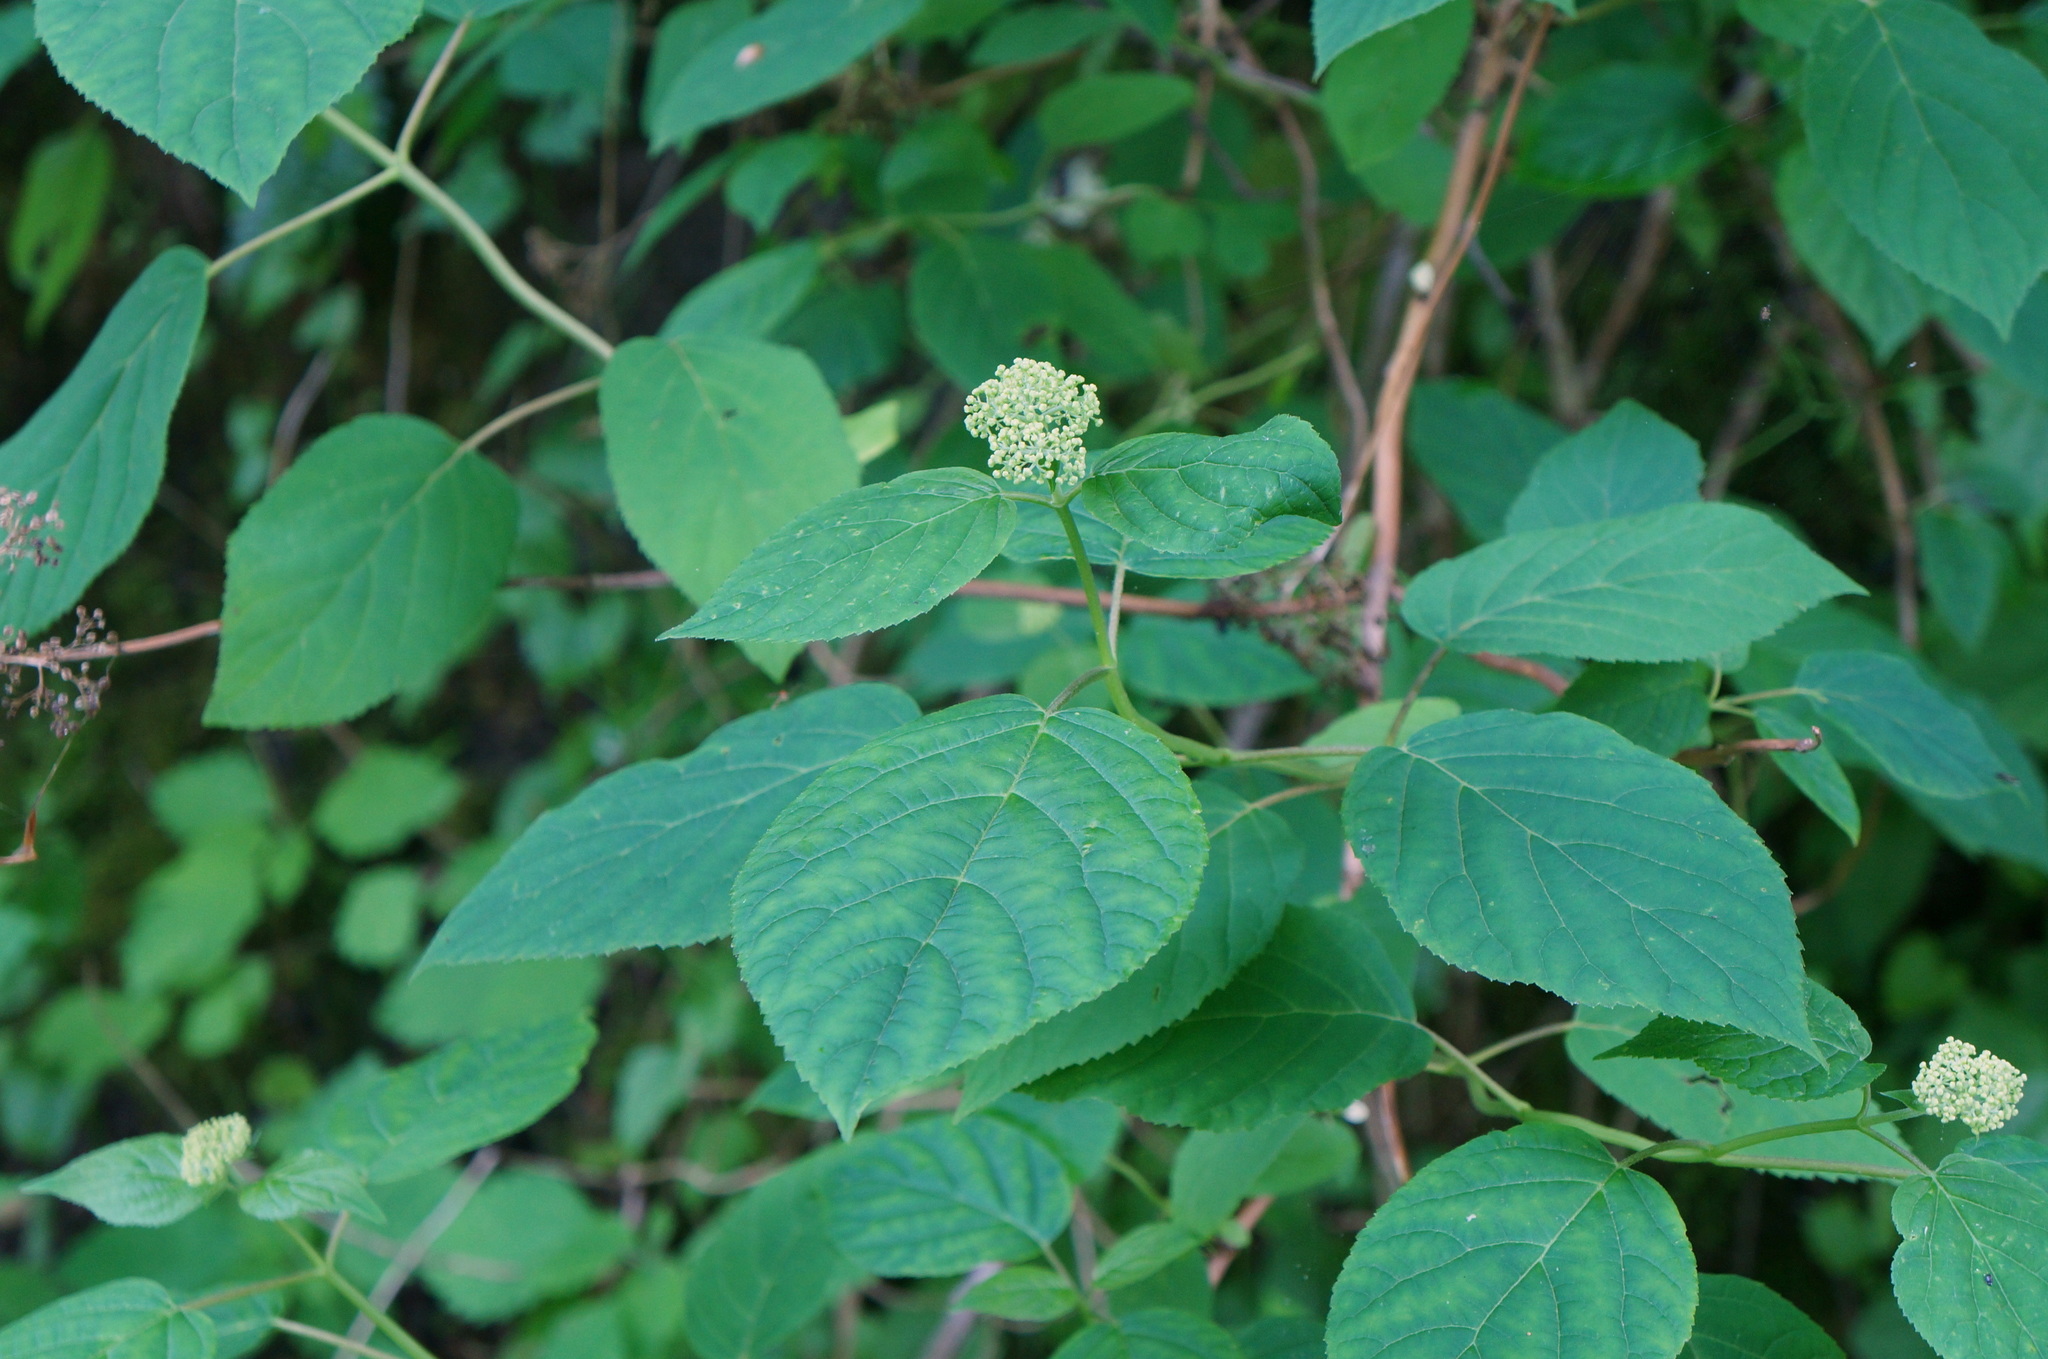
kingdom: Plantae
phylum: Tracheophyta
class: Magnoliopsida
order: Cornales
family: Hydrangeaceae
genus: Hydrangea
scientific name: Hydrangea arborescens
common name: Sevenbark
